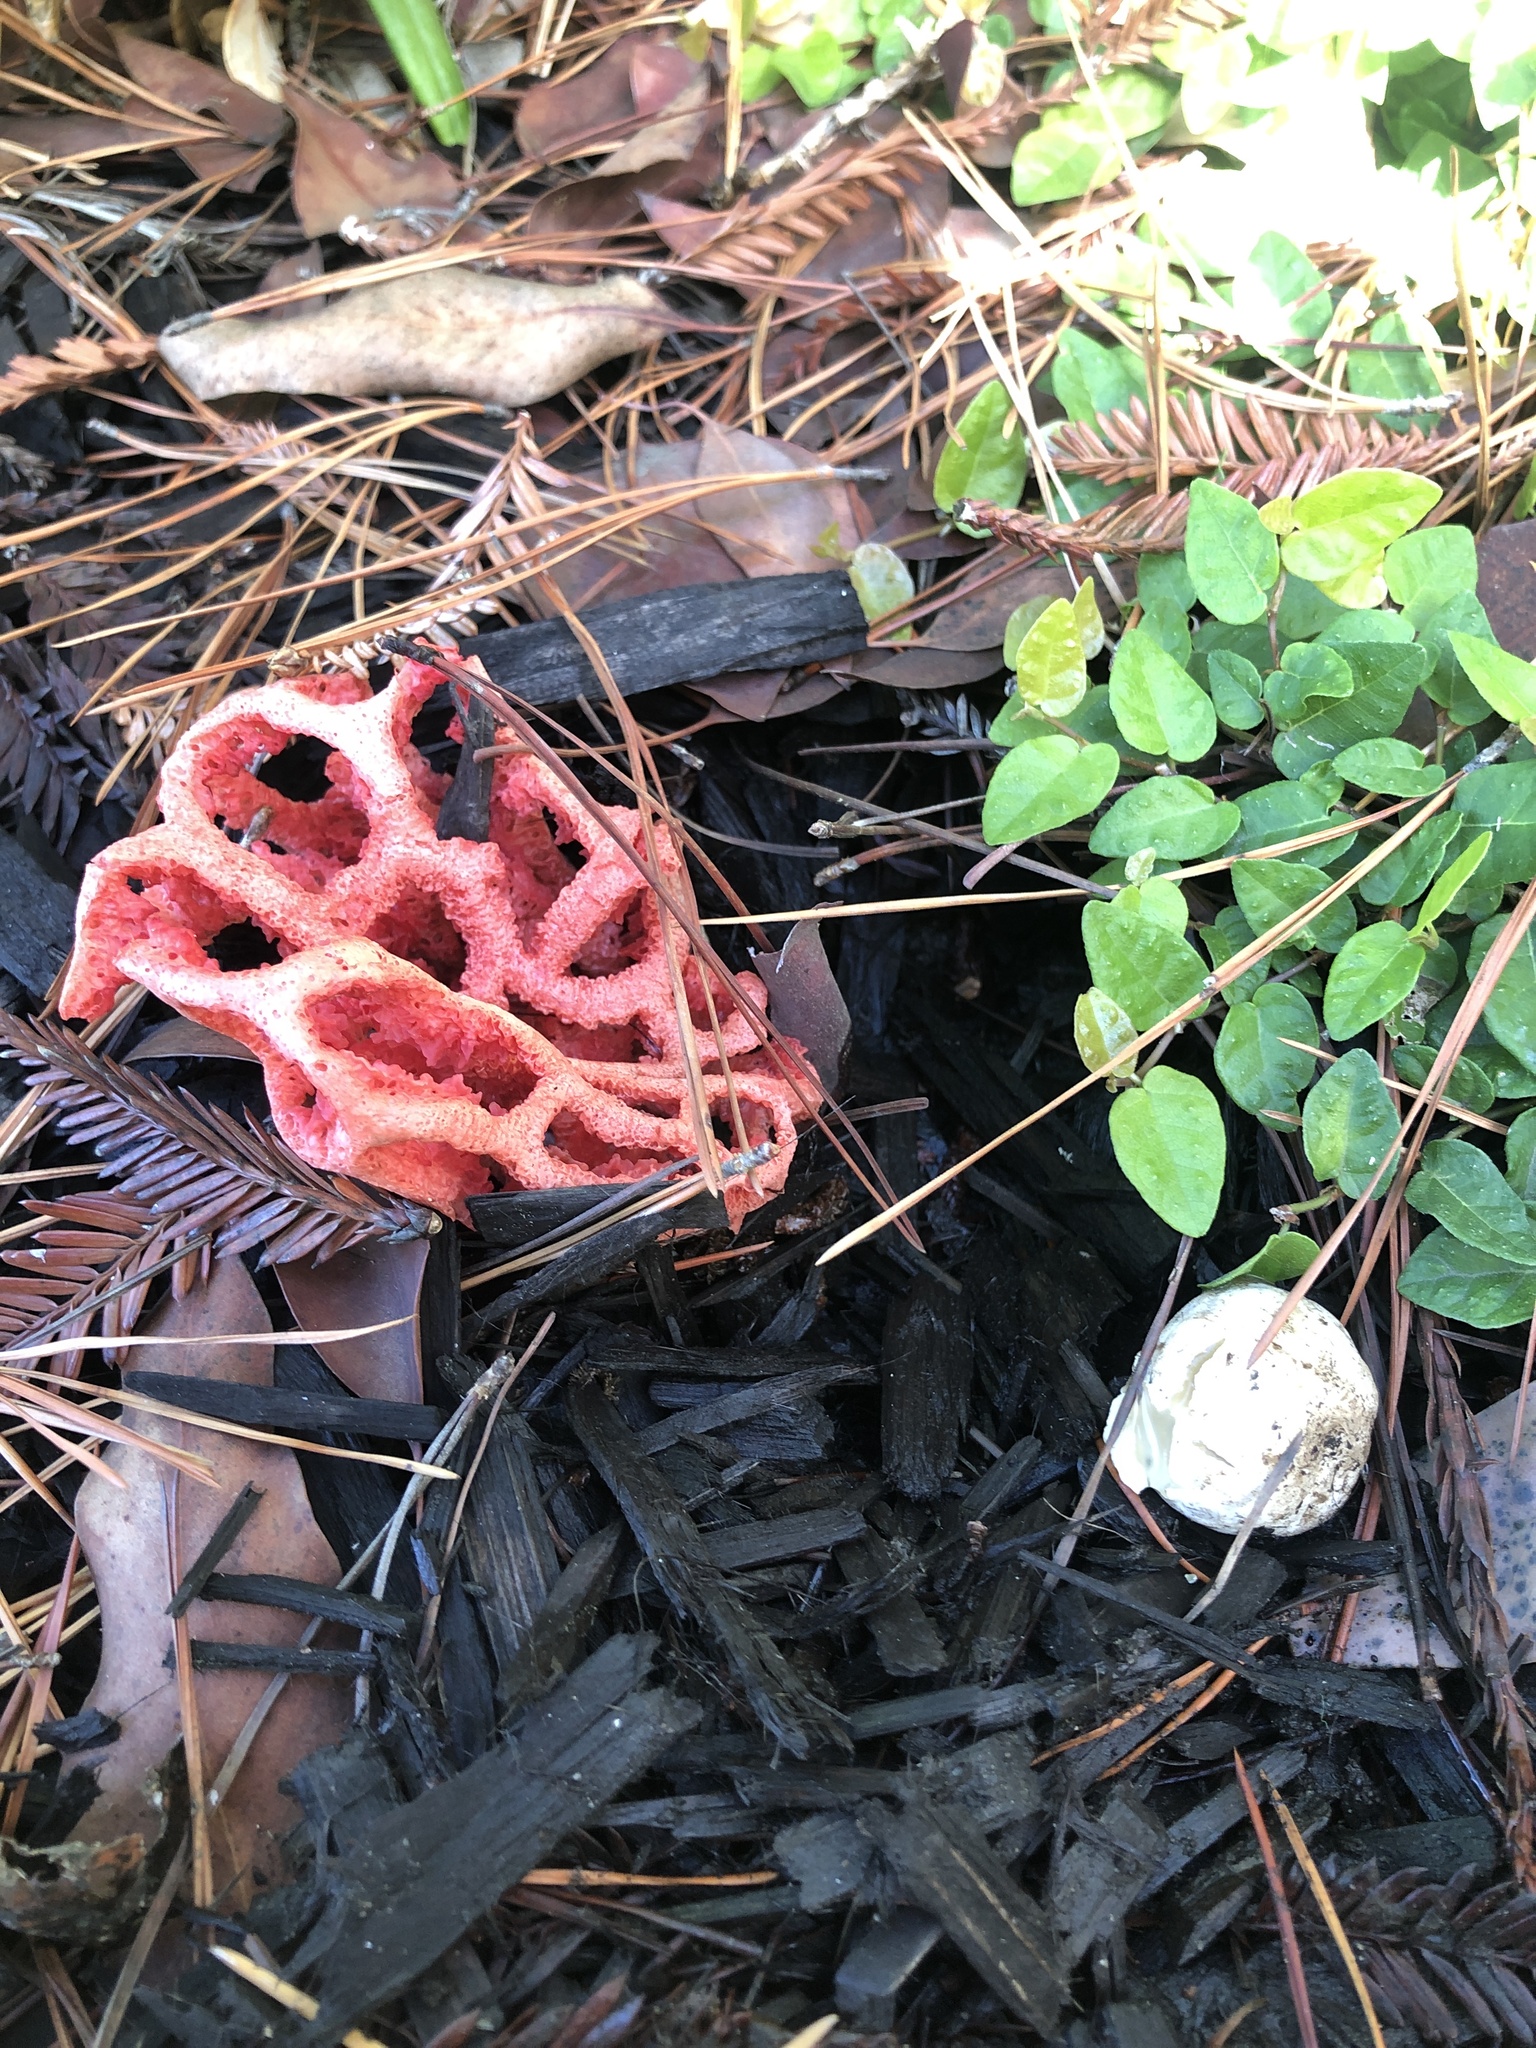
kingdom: Fungi
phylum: Basidiomycota
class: Agaricomycetes
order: Phallales
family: Phallaceae
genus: Clathrus
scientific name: Clathrus ruber
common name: Red cage
